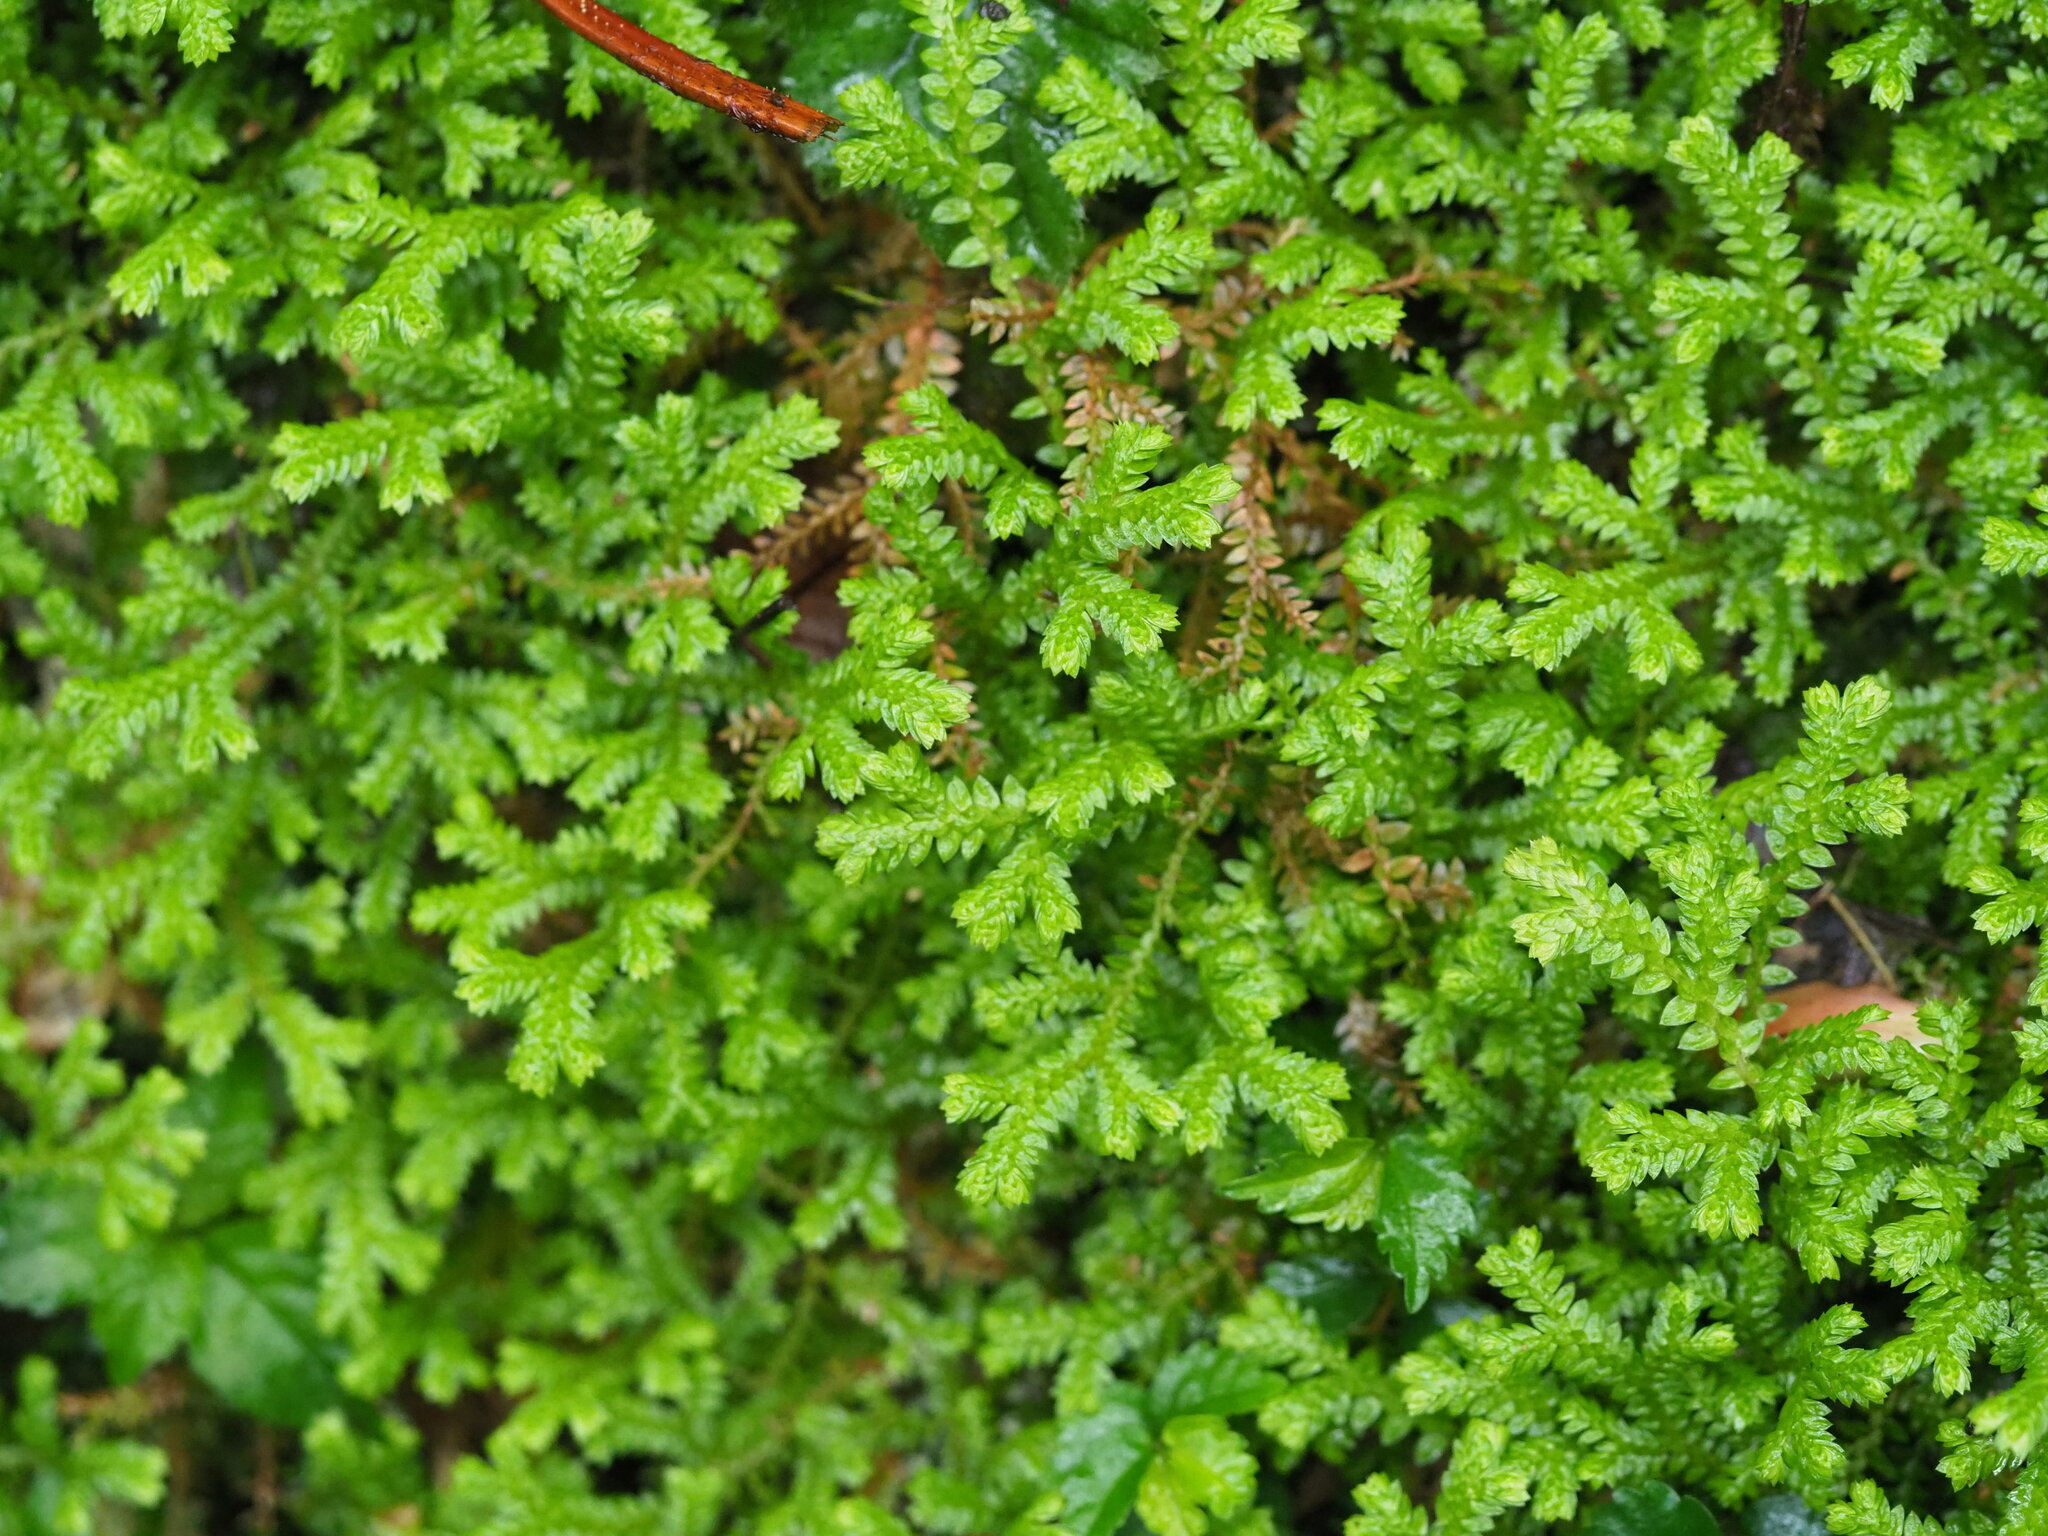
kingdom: Plantae
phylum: Tracheophyta
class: Lycopodiopsida
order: Selaginellales
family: Selaginellaceae
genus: Selaginella
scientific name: Selaginella remotifolia
